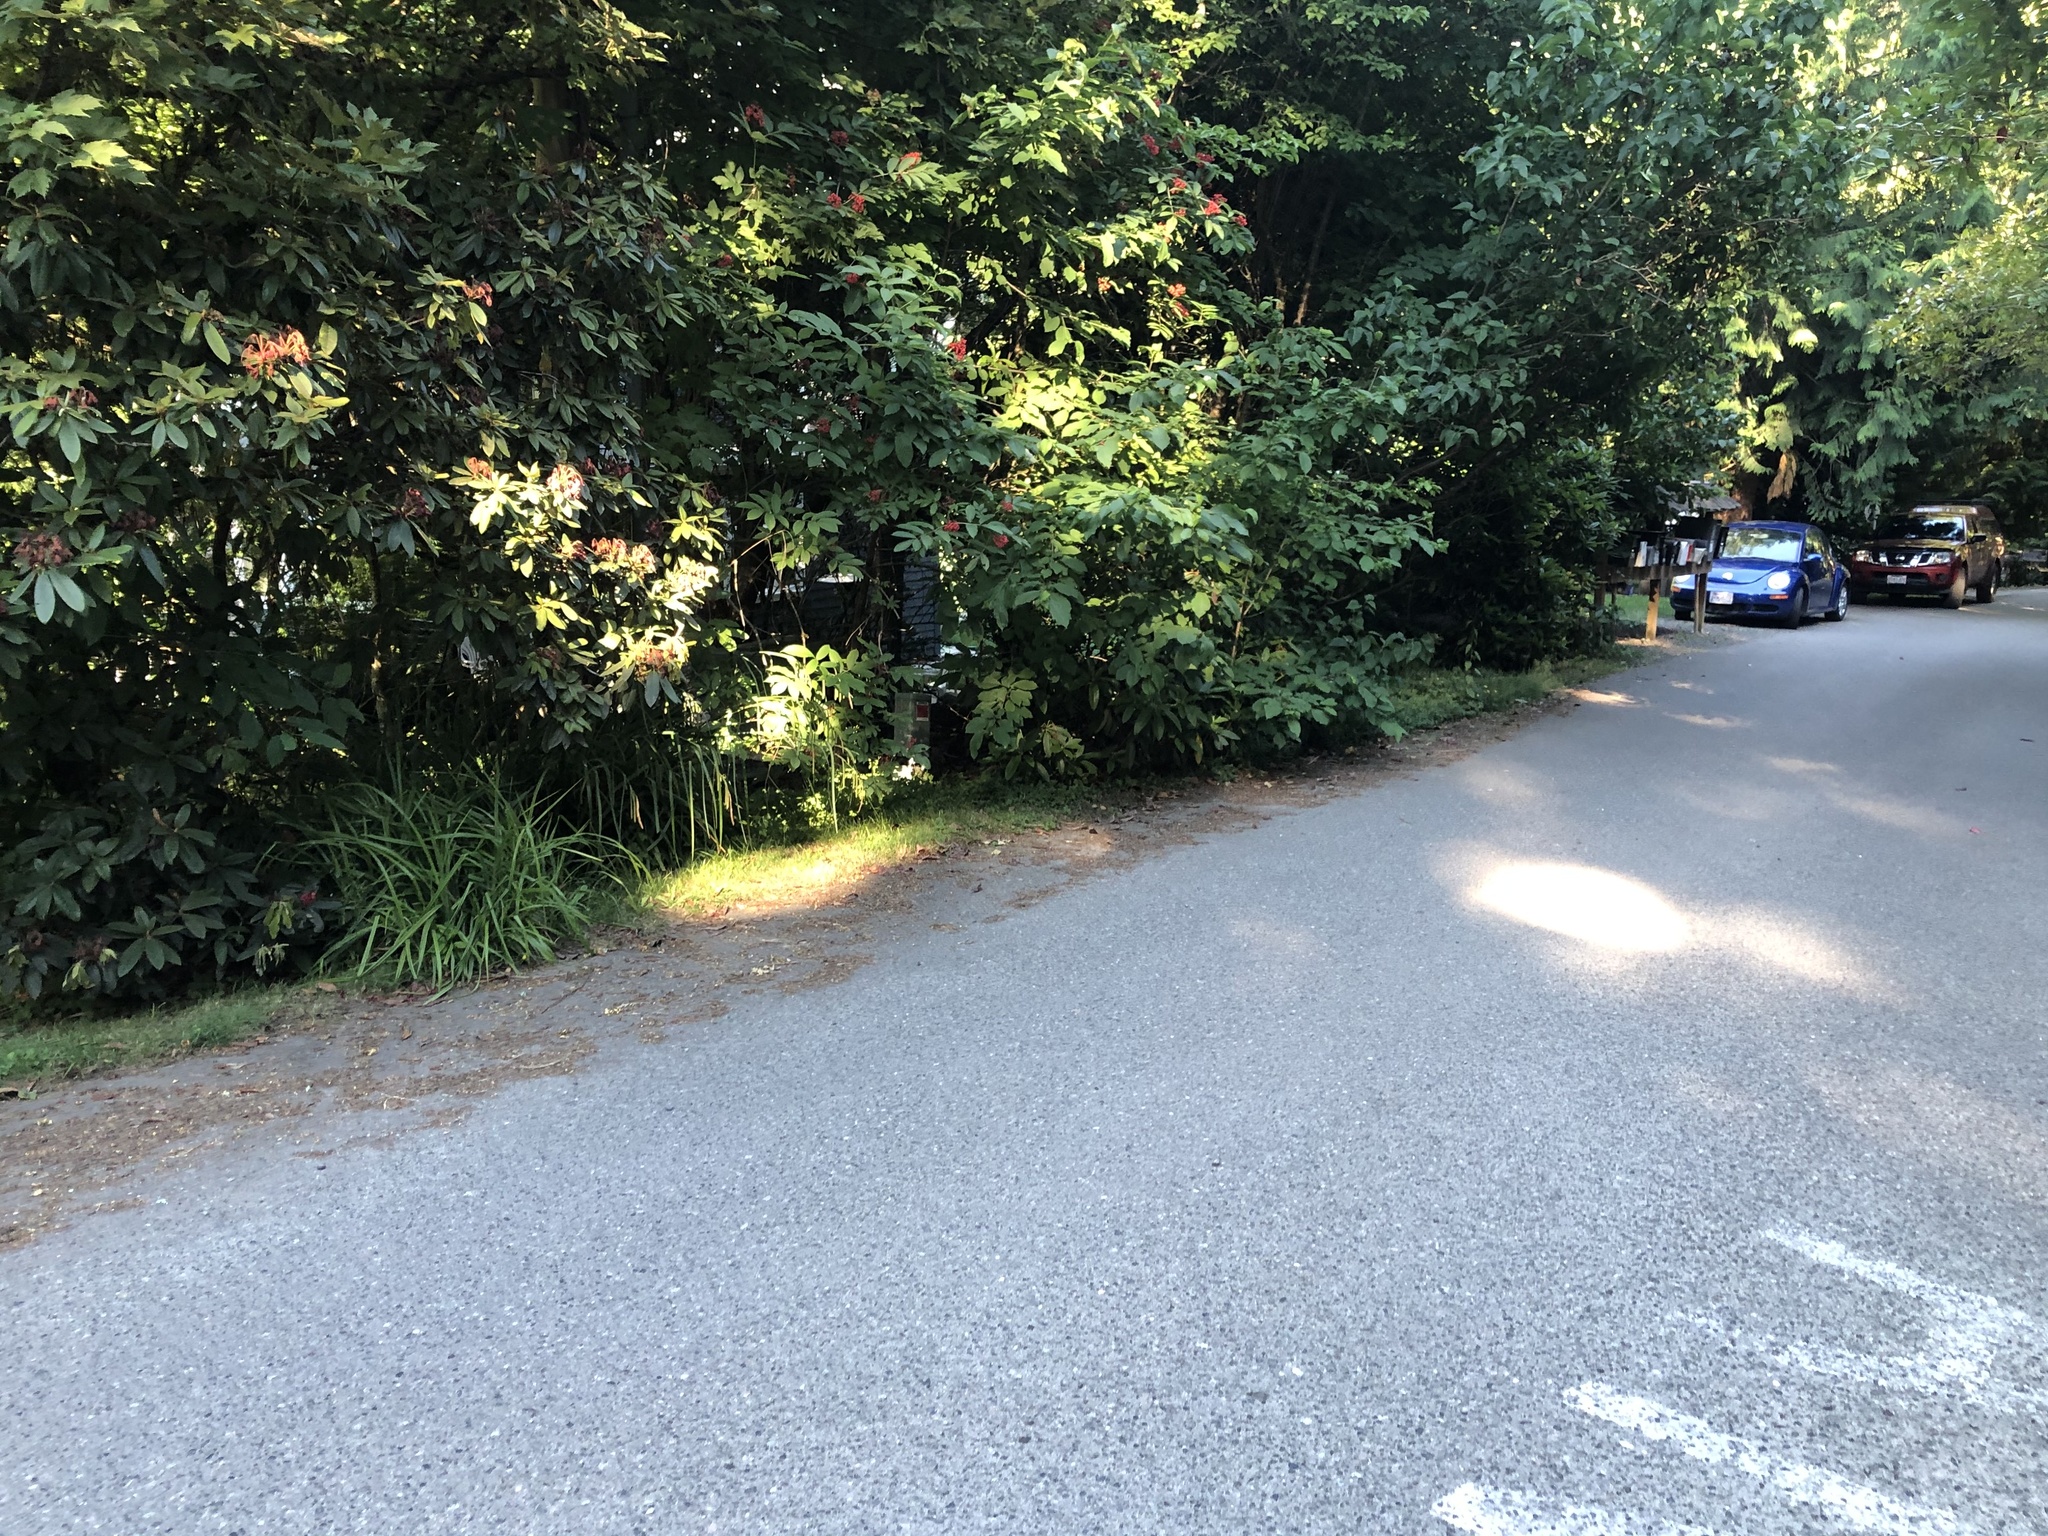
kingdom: Plantae
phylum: Tracheophyta
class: Liliopsida
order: Poales
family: Cyperaceae
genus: Carex
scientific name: Carex pendula
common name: Pendulous sedge
